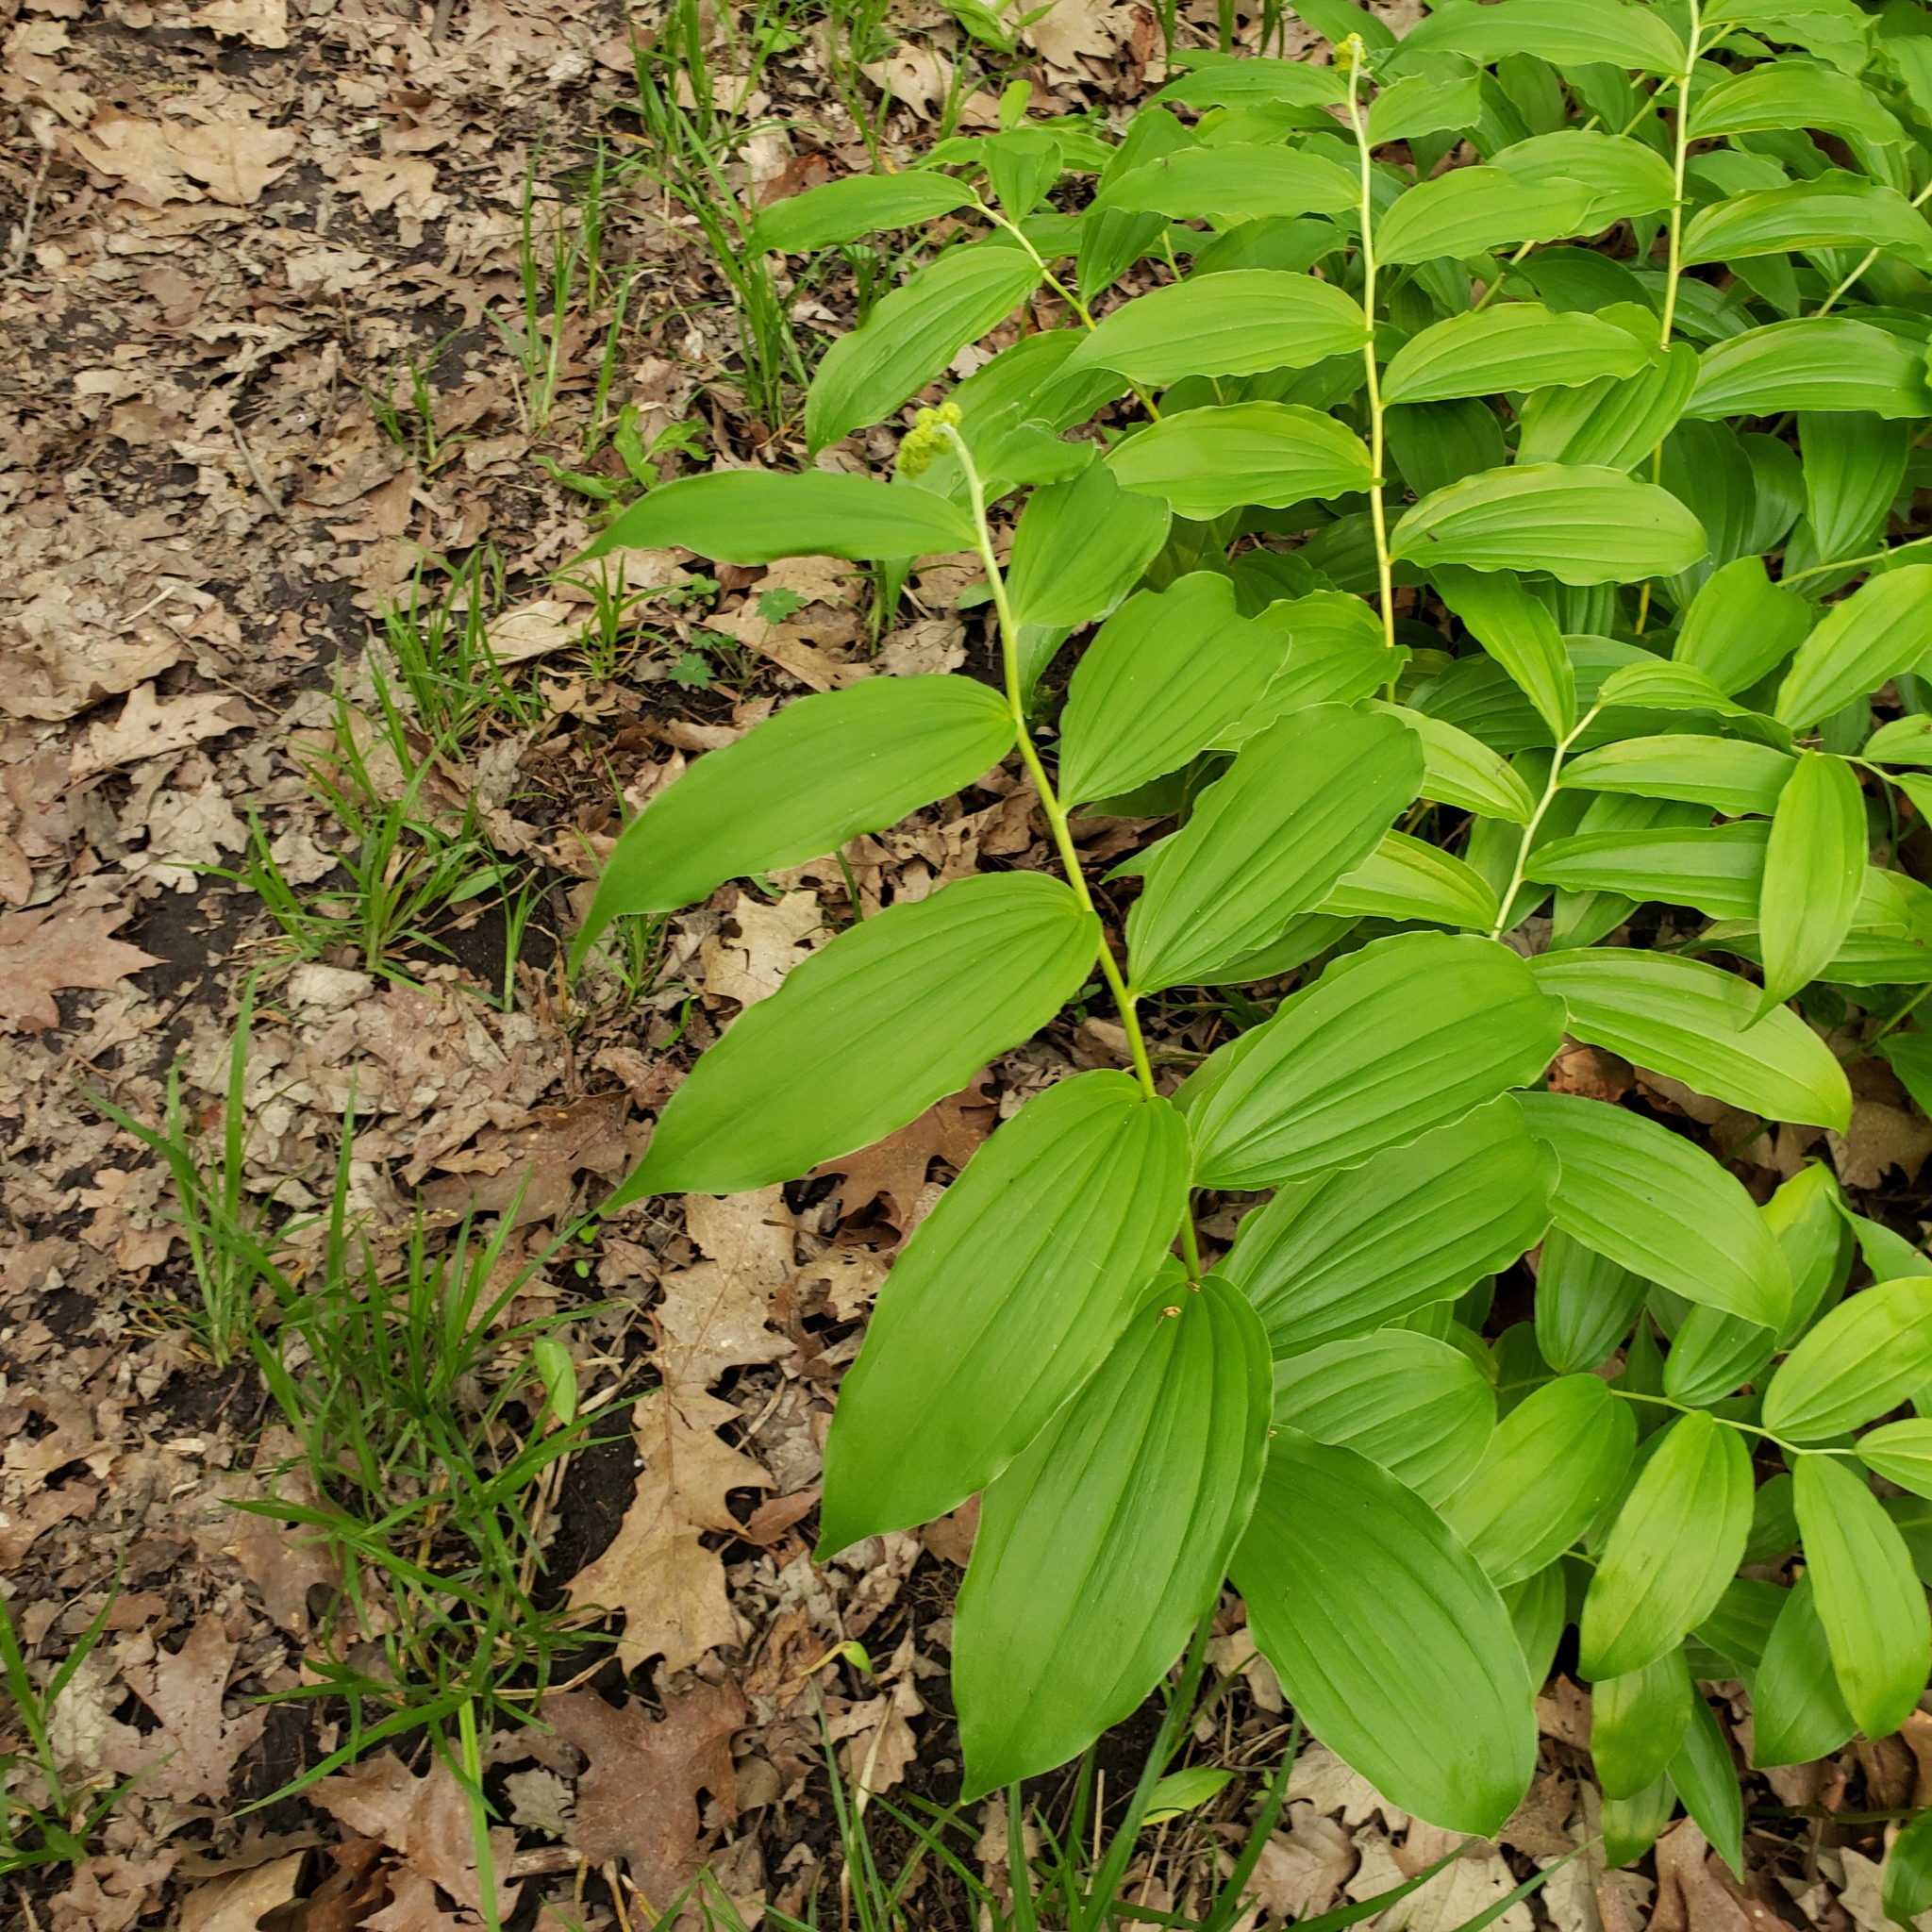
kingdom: Plantae
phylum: Tracheophyta
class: Liliopsida
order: Asparagales
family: Asparagaceae
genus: Maianthemum
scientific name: Maianthemum racemosum
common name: False spikenard
